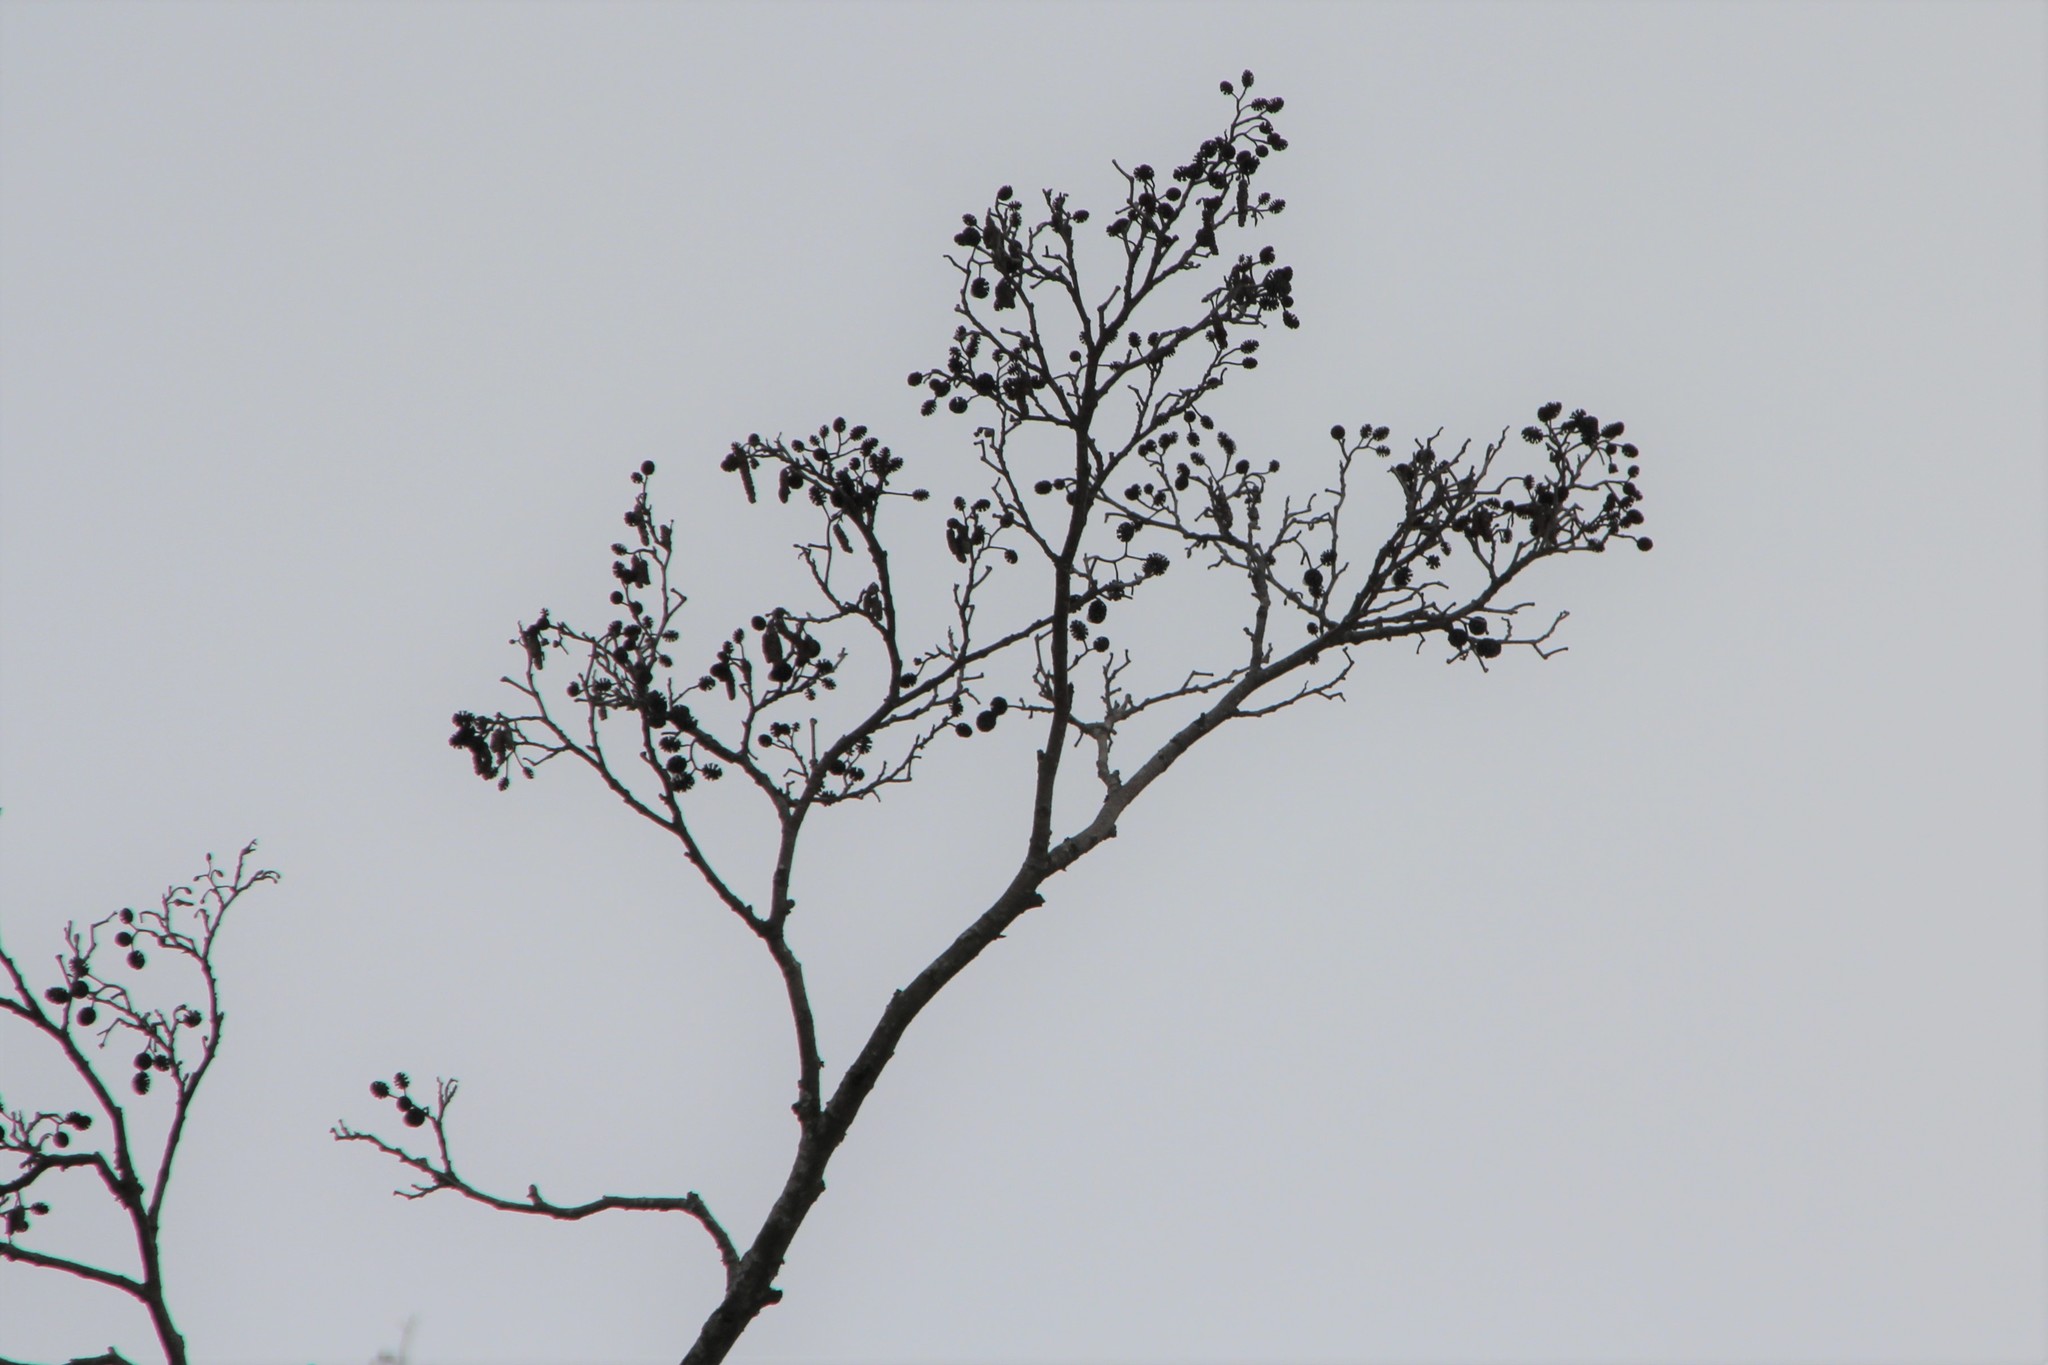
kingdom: Plantae
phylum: Tracheophyta
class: Magnoliopsida
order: Fagales
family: Betulaceae
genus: Alnus
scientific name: Alnus glutinosa
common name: Black alder
